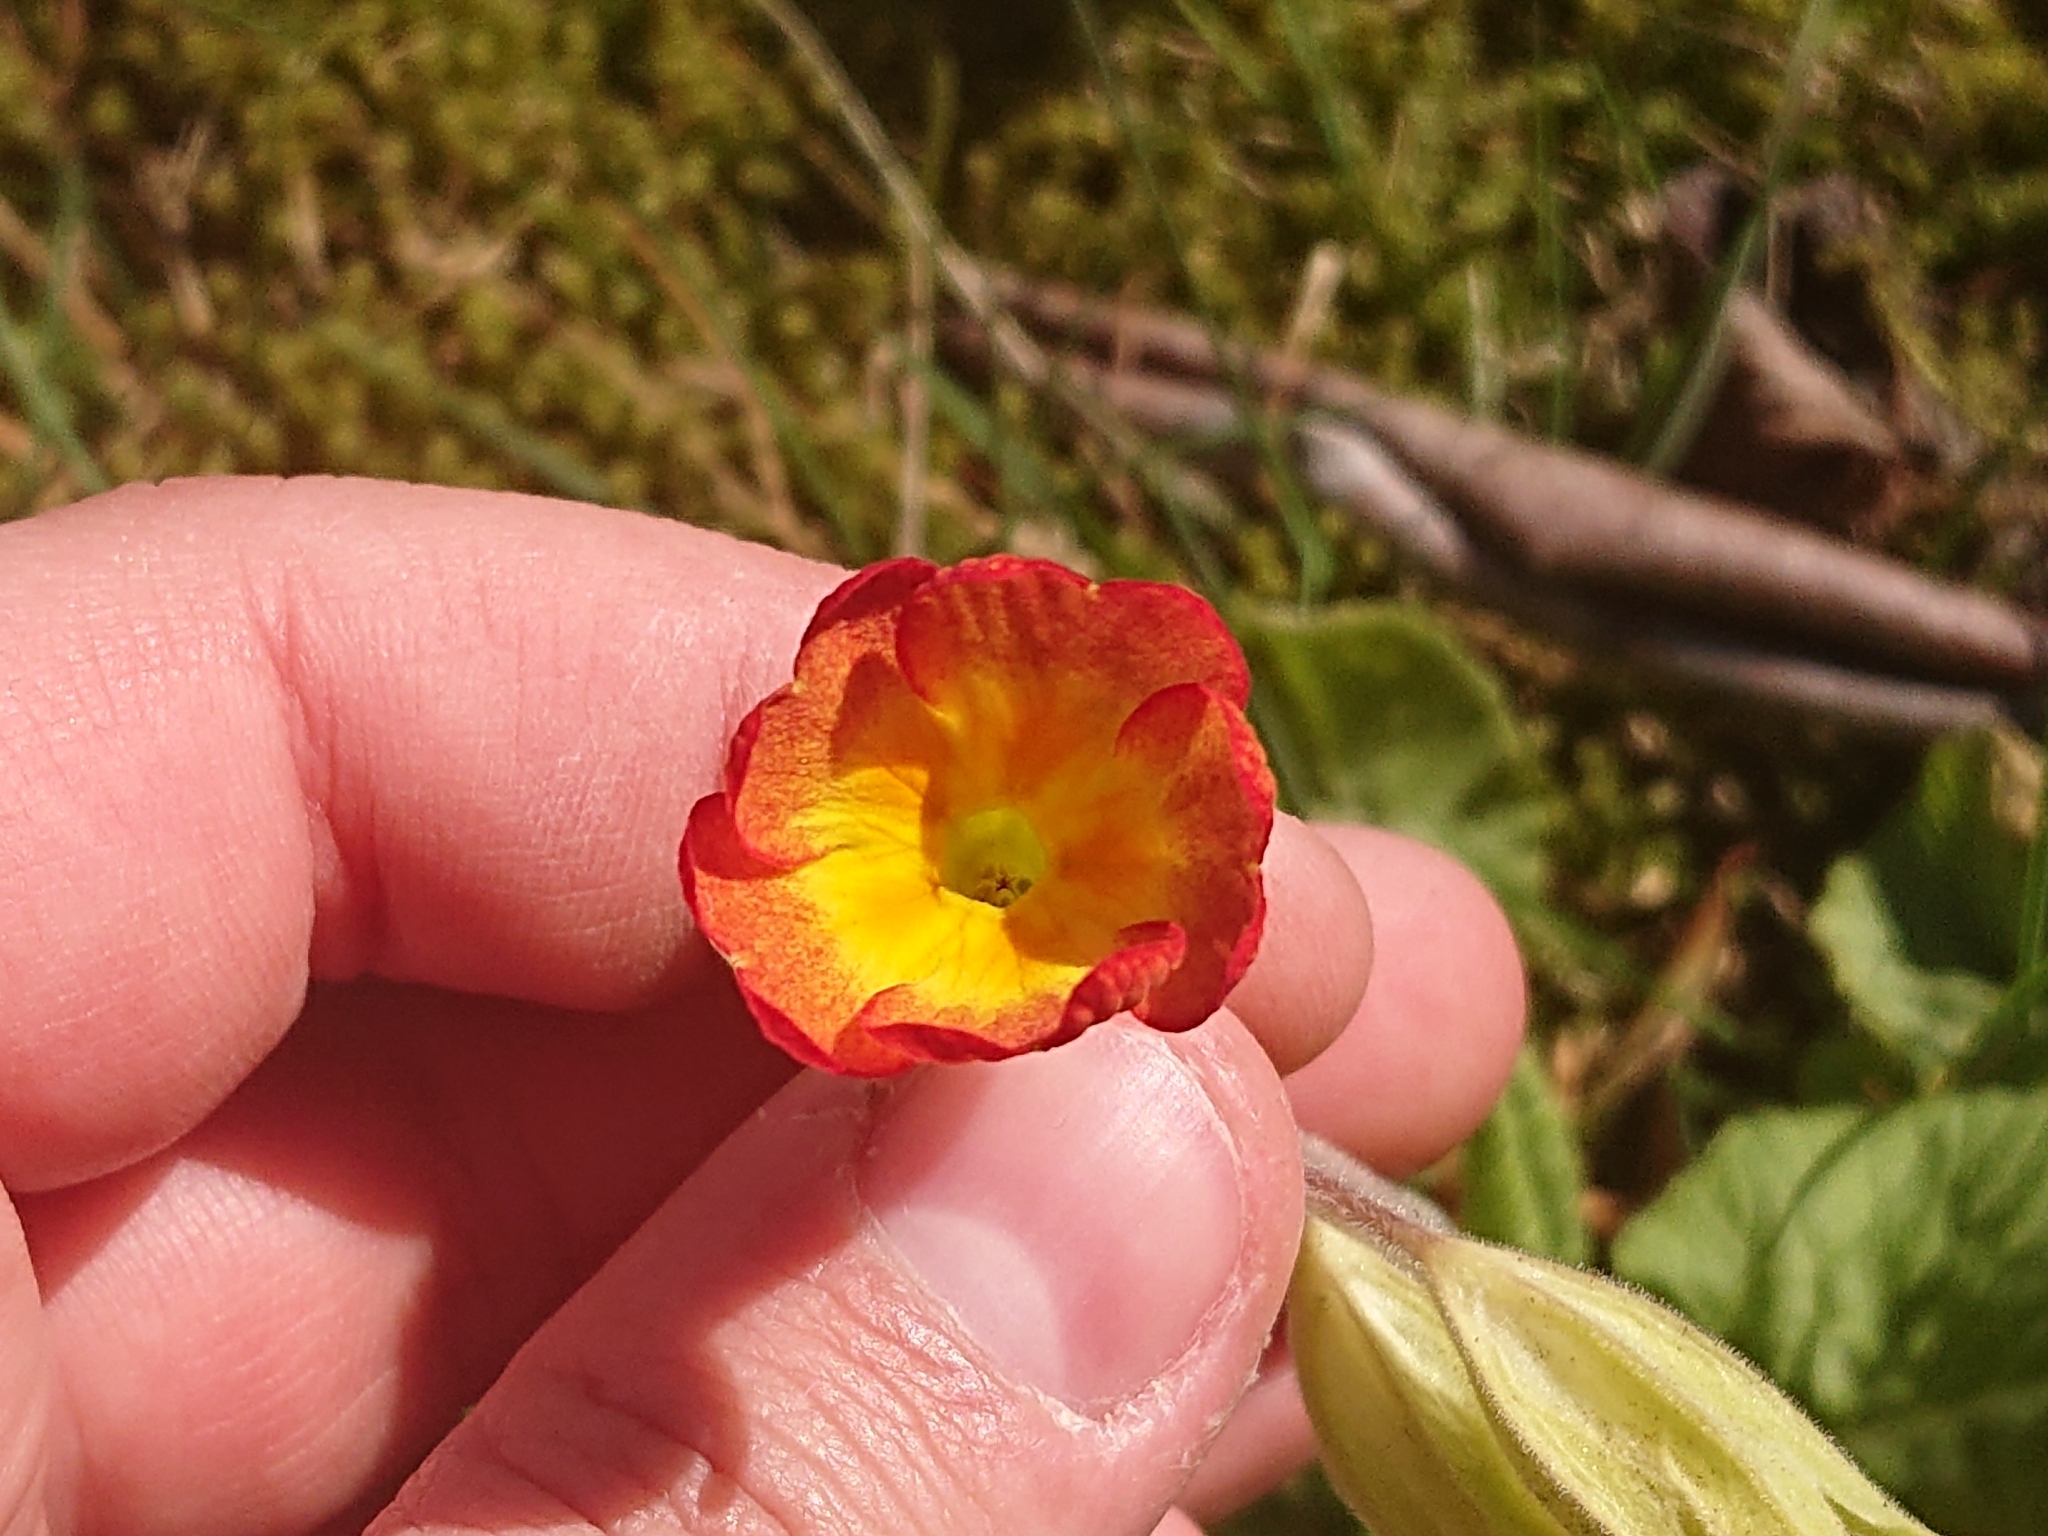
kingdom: Plantae
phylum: Tracheophyta
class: Magnoliopsida
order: Ericales
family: Primulaceae
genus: Primula
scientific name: Primula veris
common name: Cowslip
